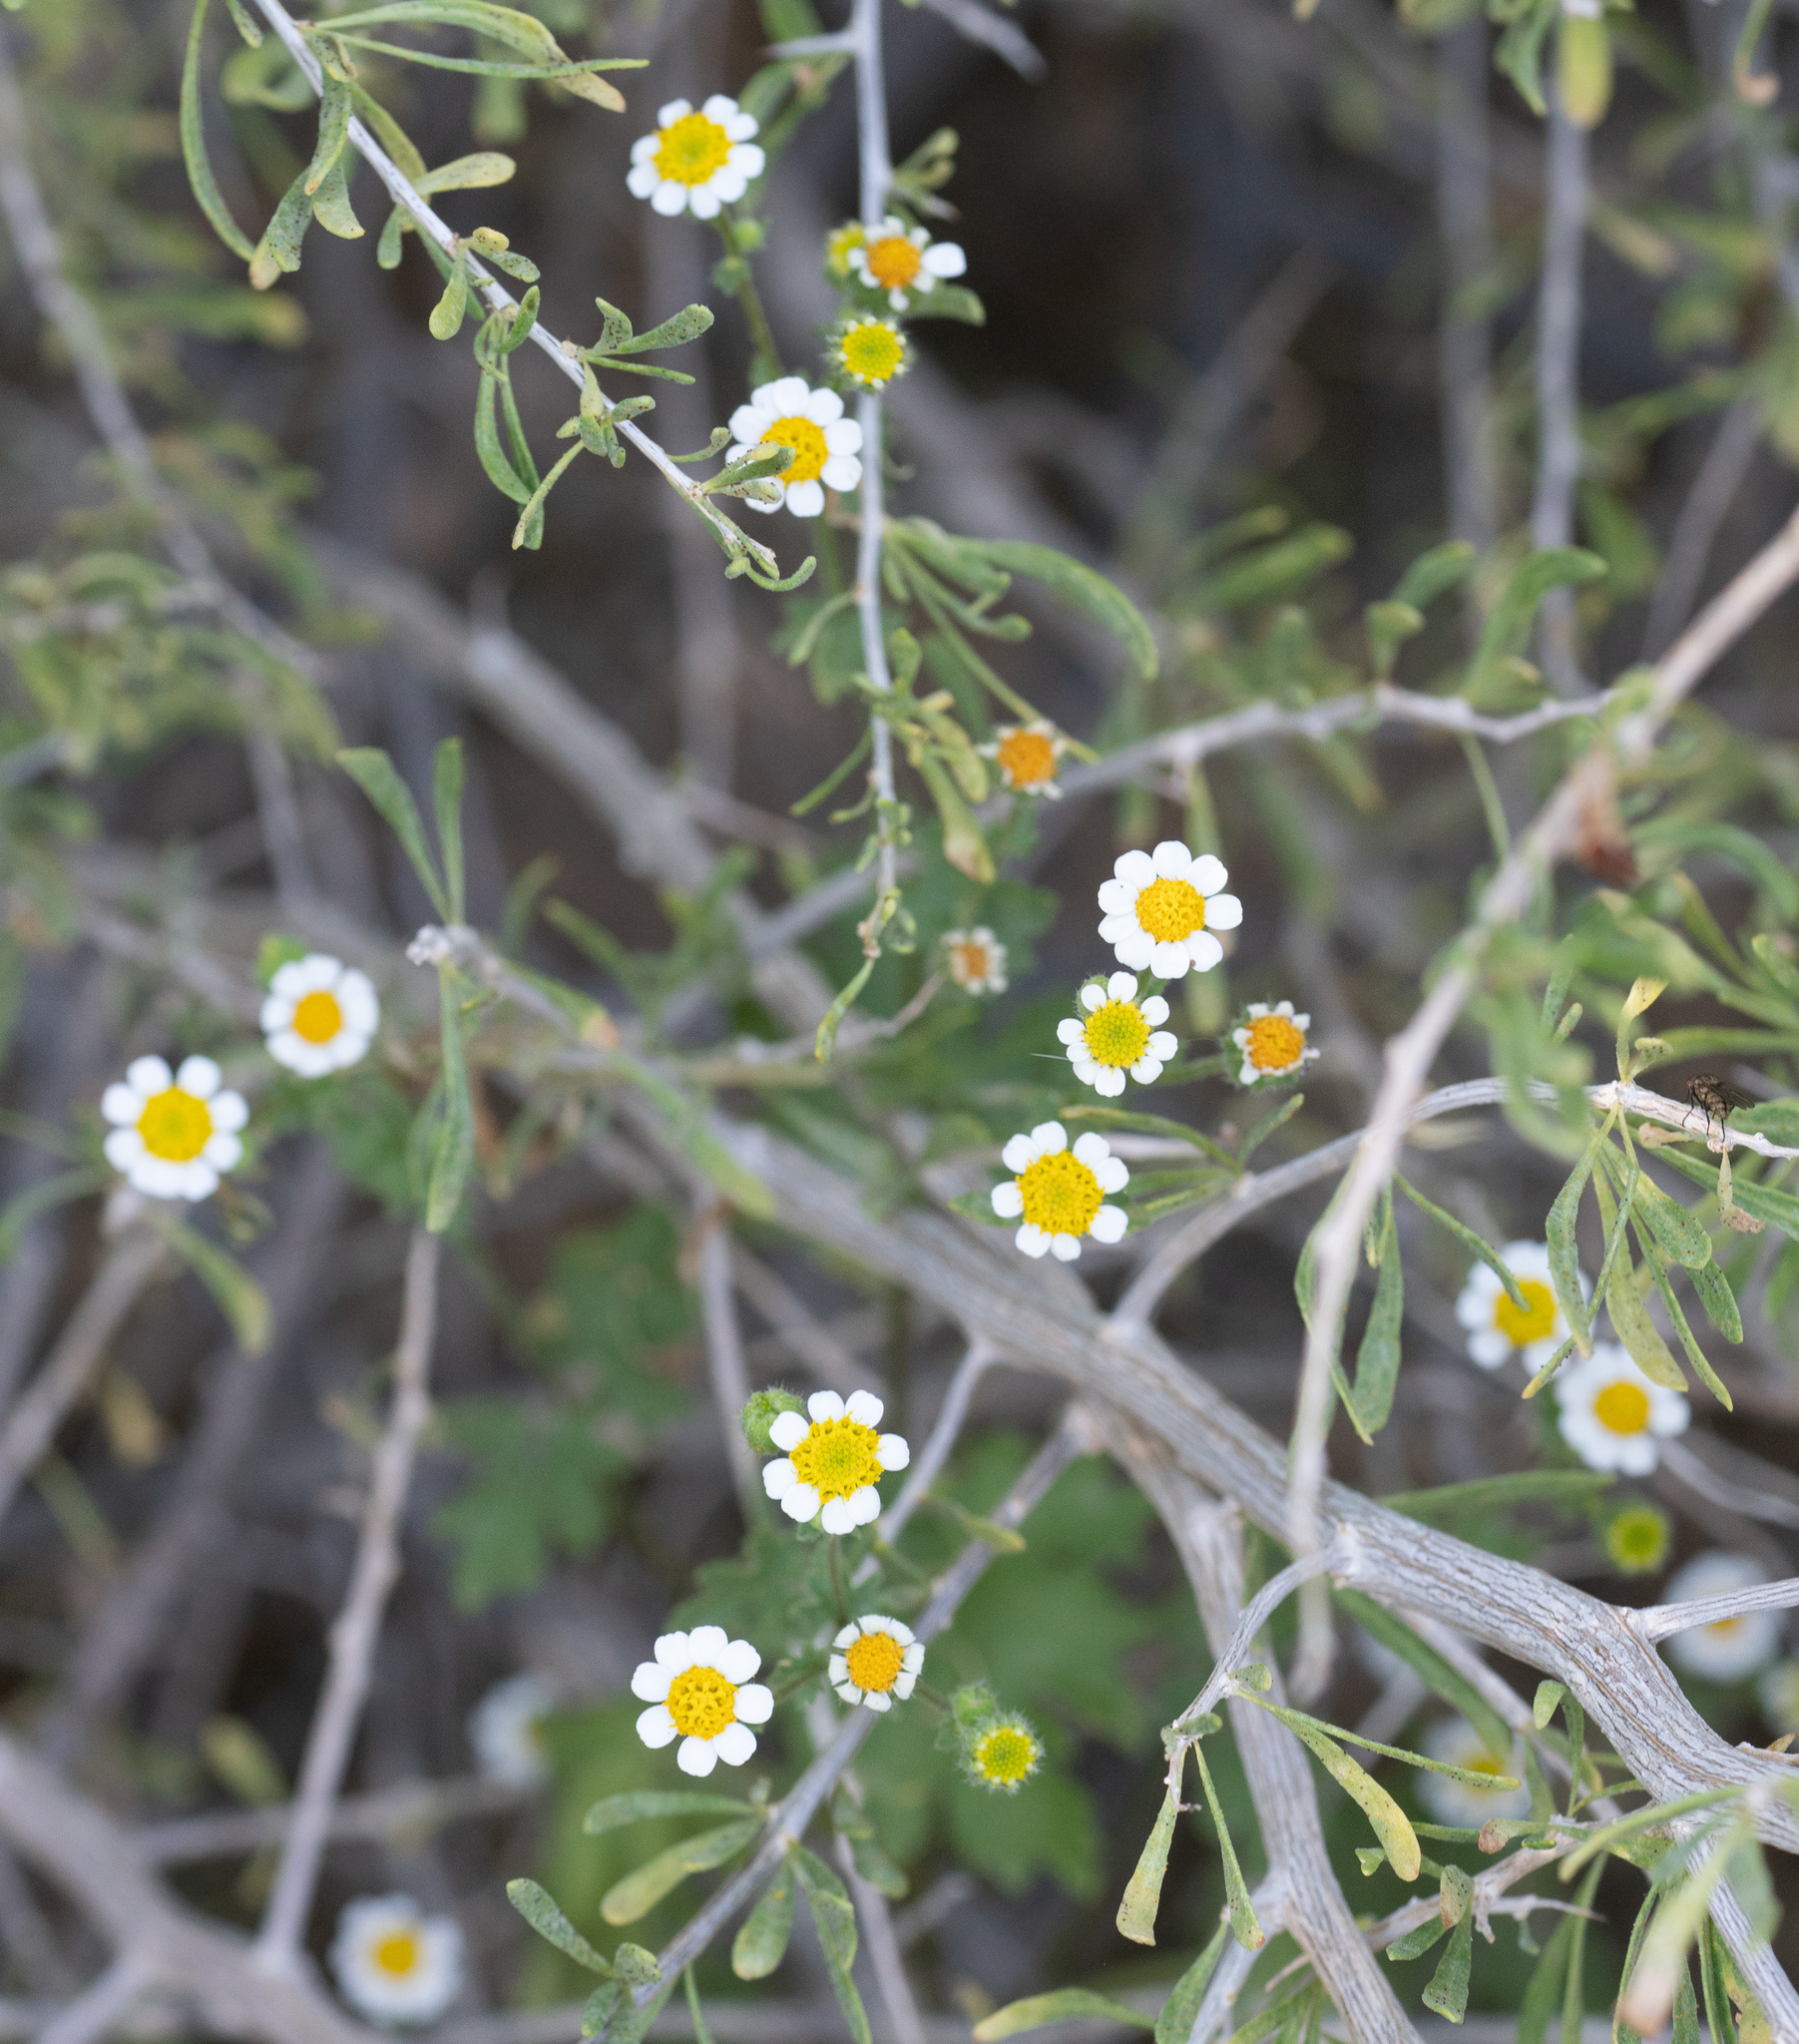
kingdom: Plantae
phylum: Tracheophyta
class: Magnoliopsida
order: Asterales
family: Asteraceae
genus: Laphamia
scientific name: Laphamia emoryi
